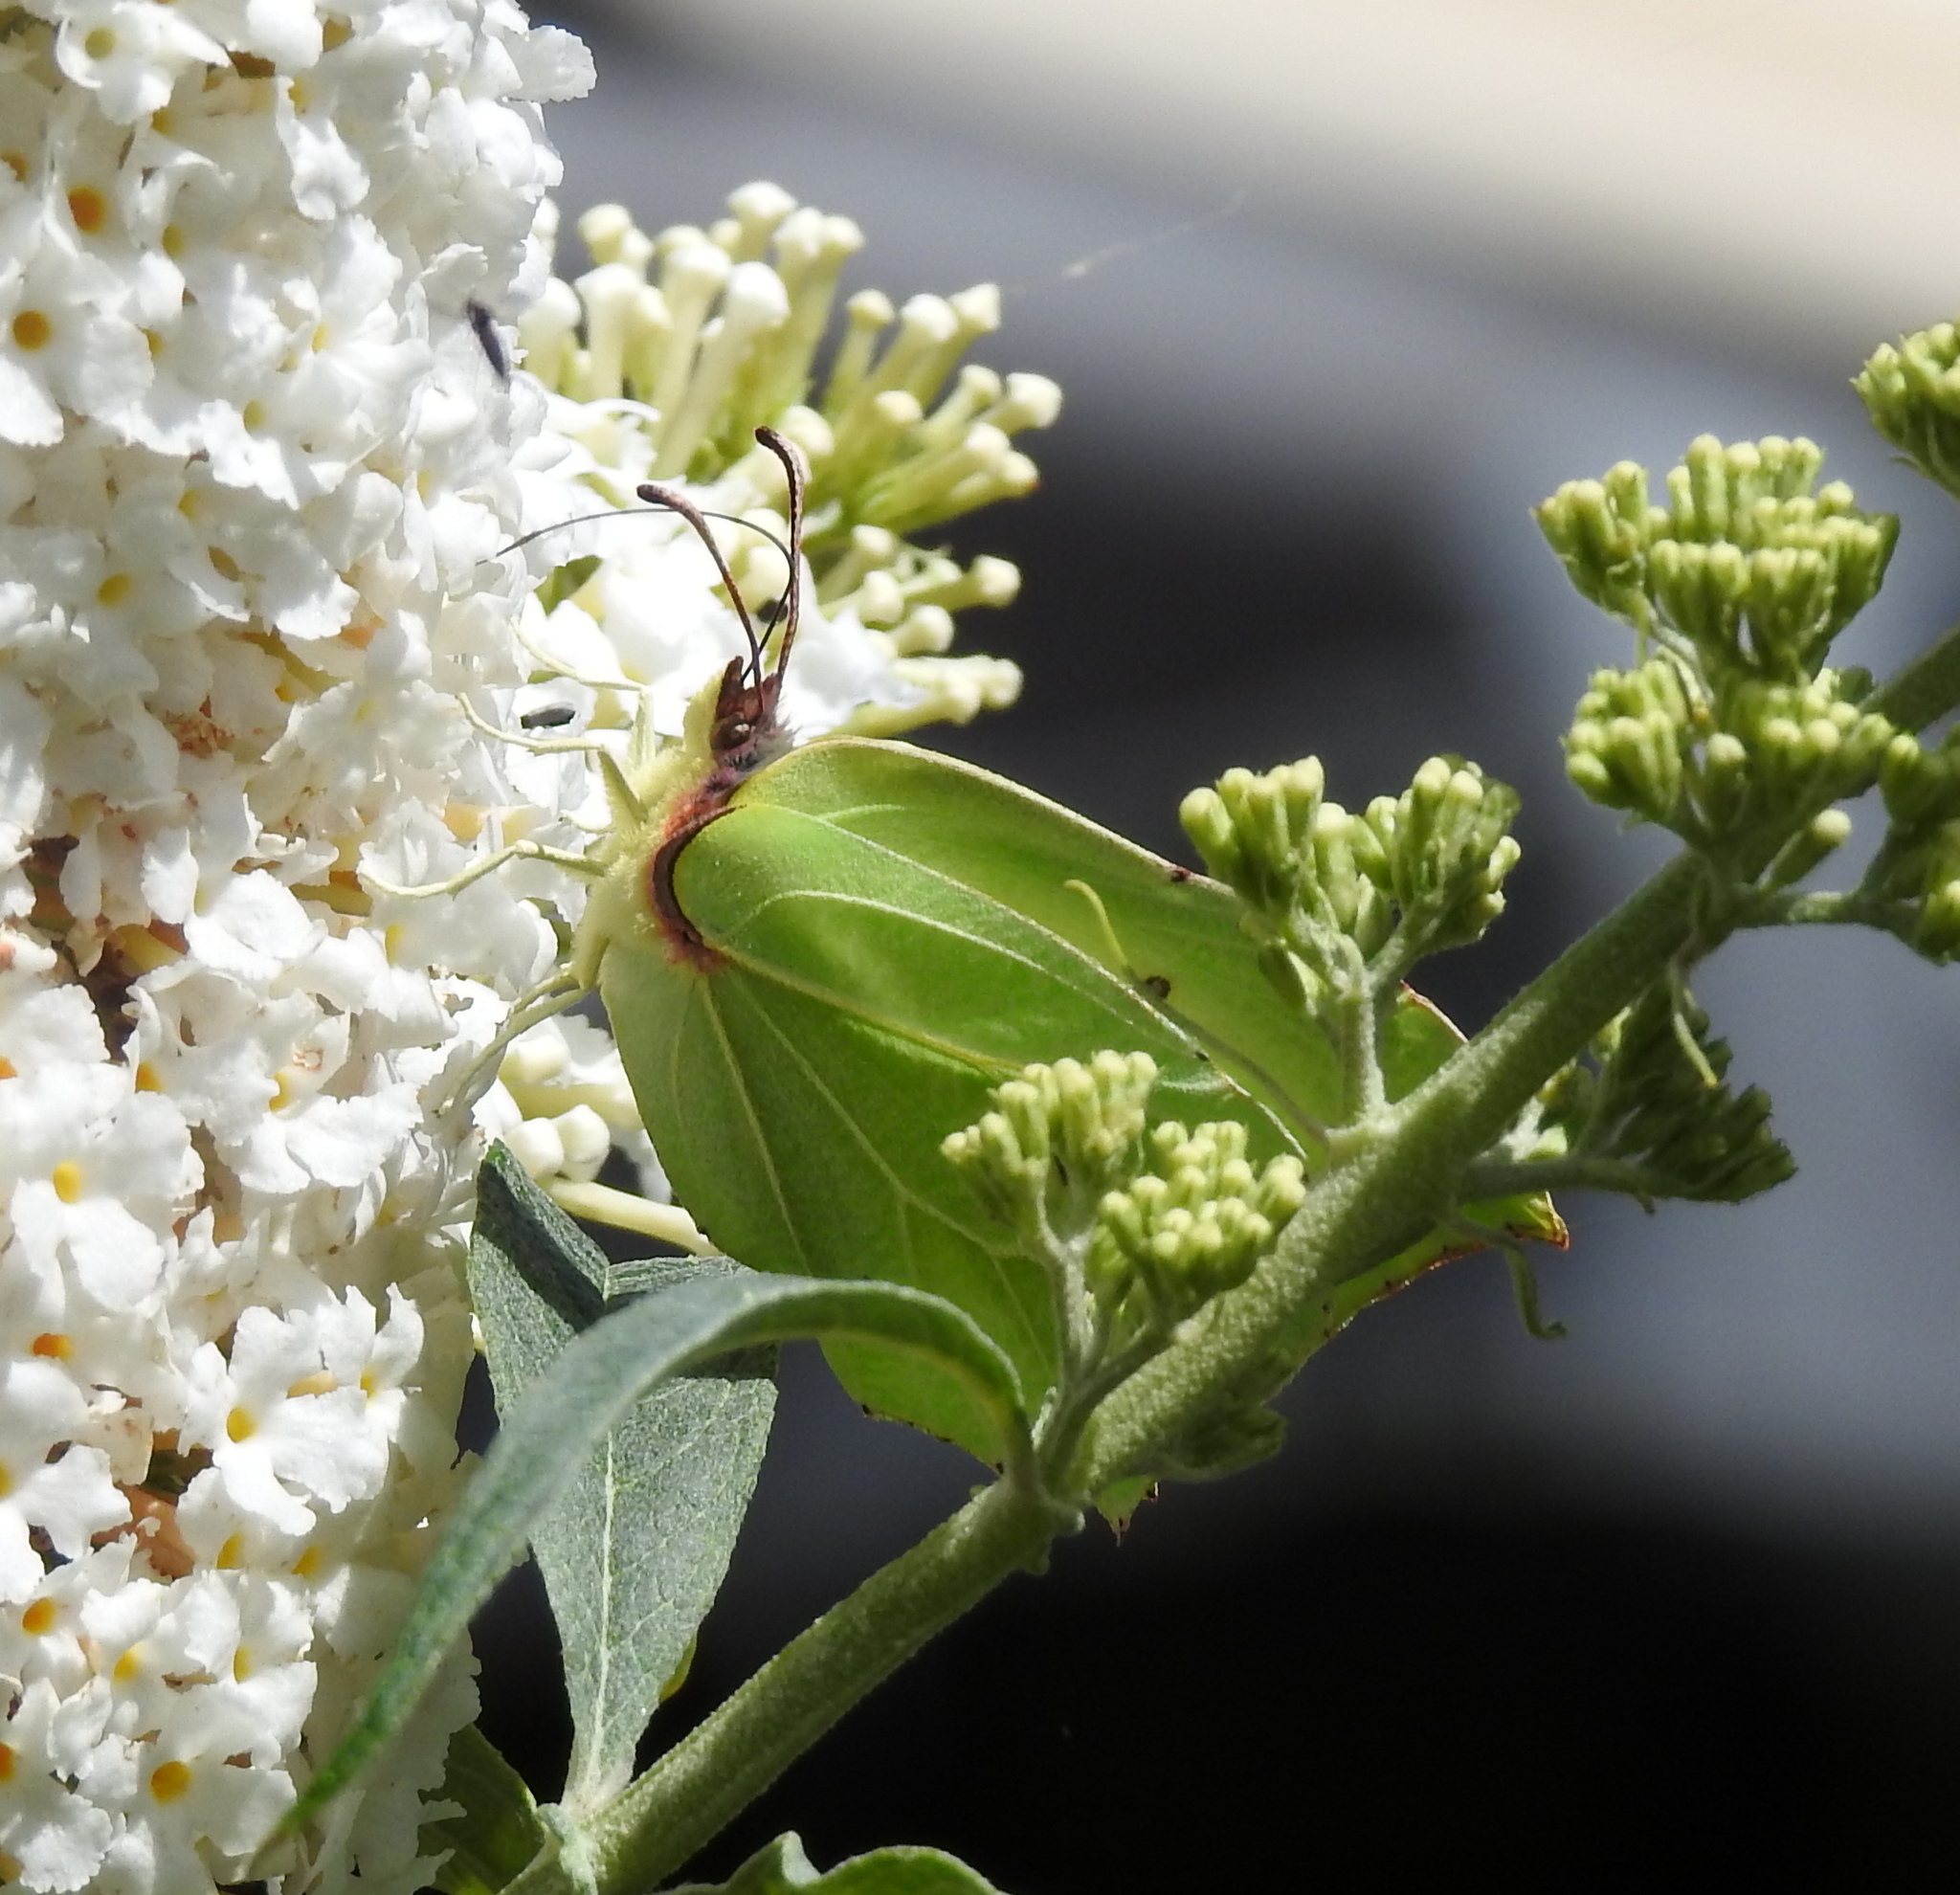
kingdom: Animalia
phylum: Arthropoda
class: Insecta
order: Lepidoptera
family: Pieridae
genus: Gonepteryx
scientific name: Gonepteryx rhamni
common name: Brimstone
